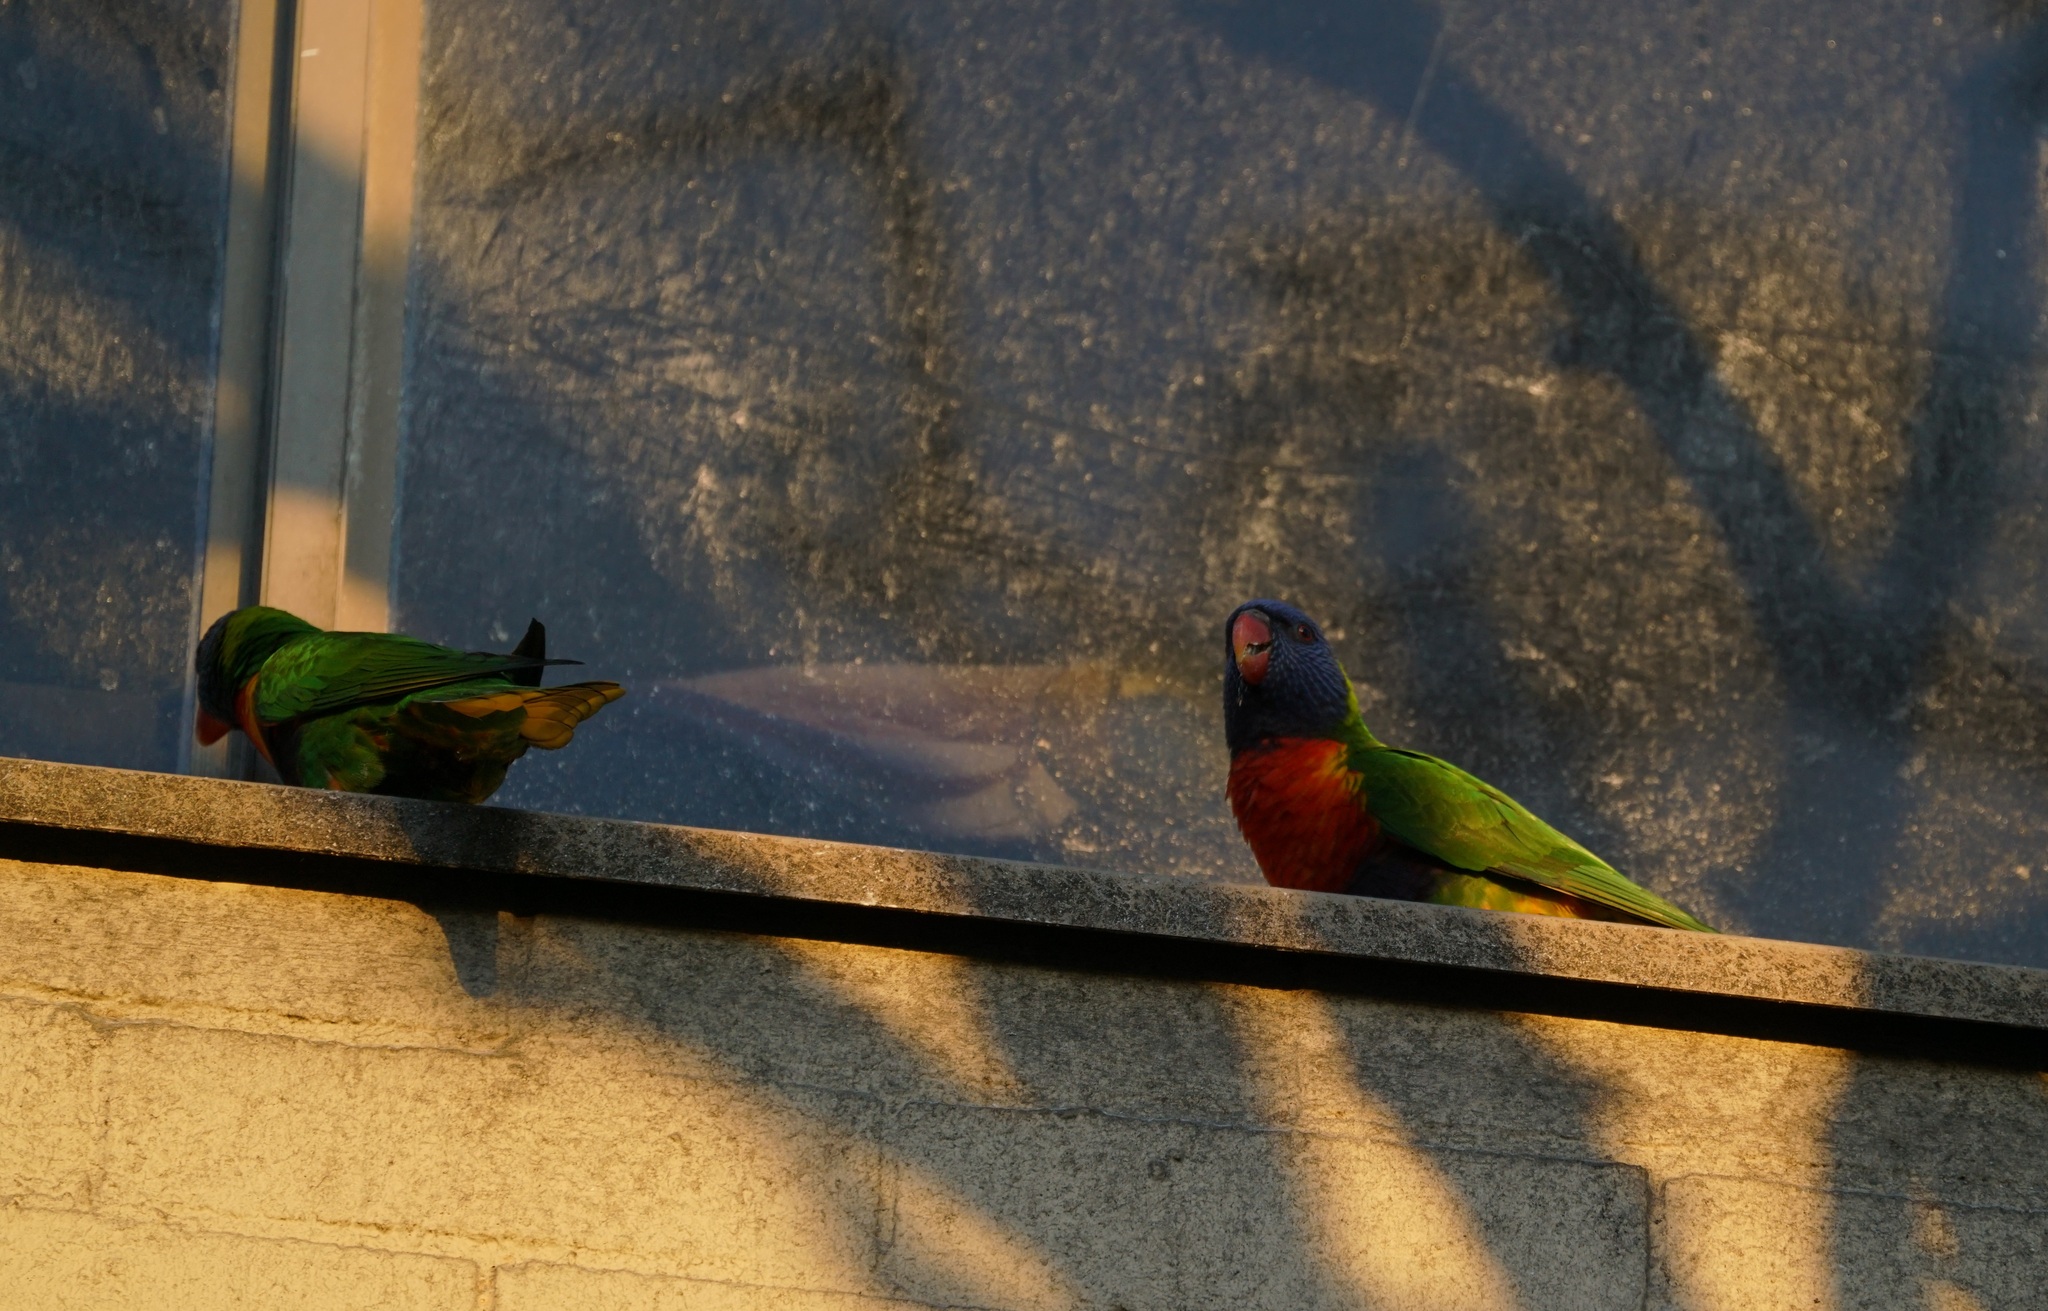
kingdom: Animalia
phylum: Chordata
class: Aves
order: Psittaciformes
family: Psittacidae
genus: Trichoglossus
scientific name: Trichoglossus haematodus
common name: Coconut lorikeet
